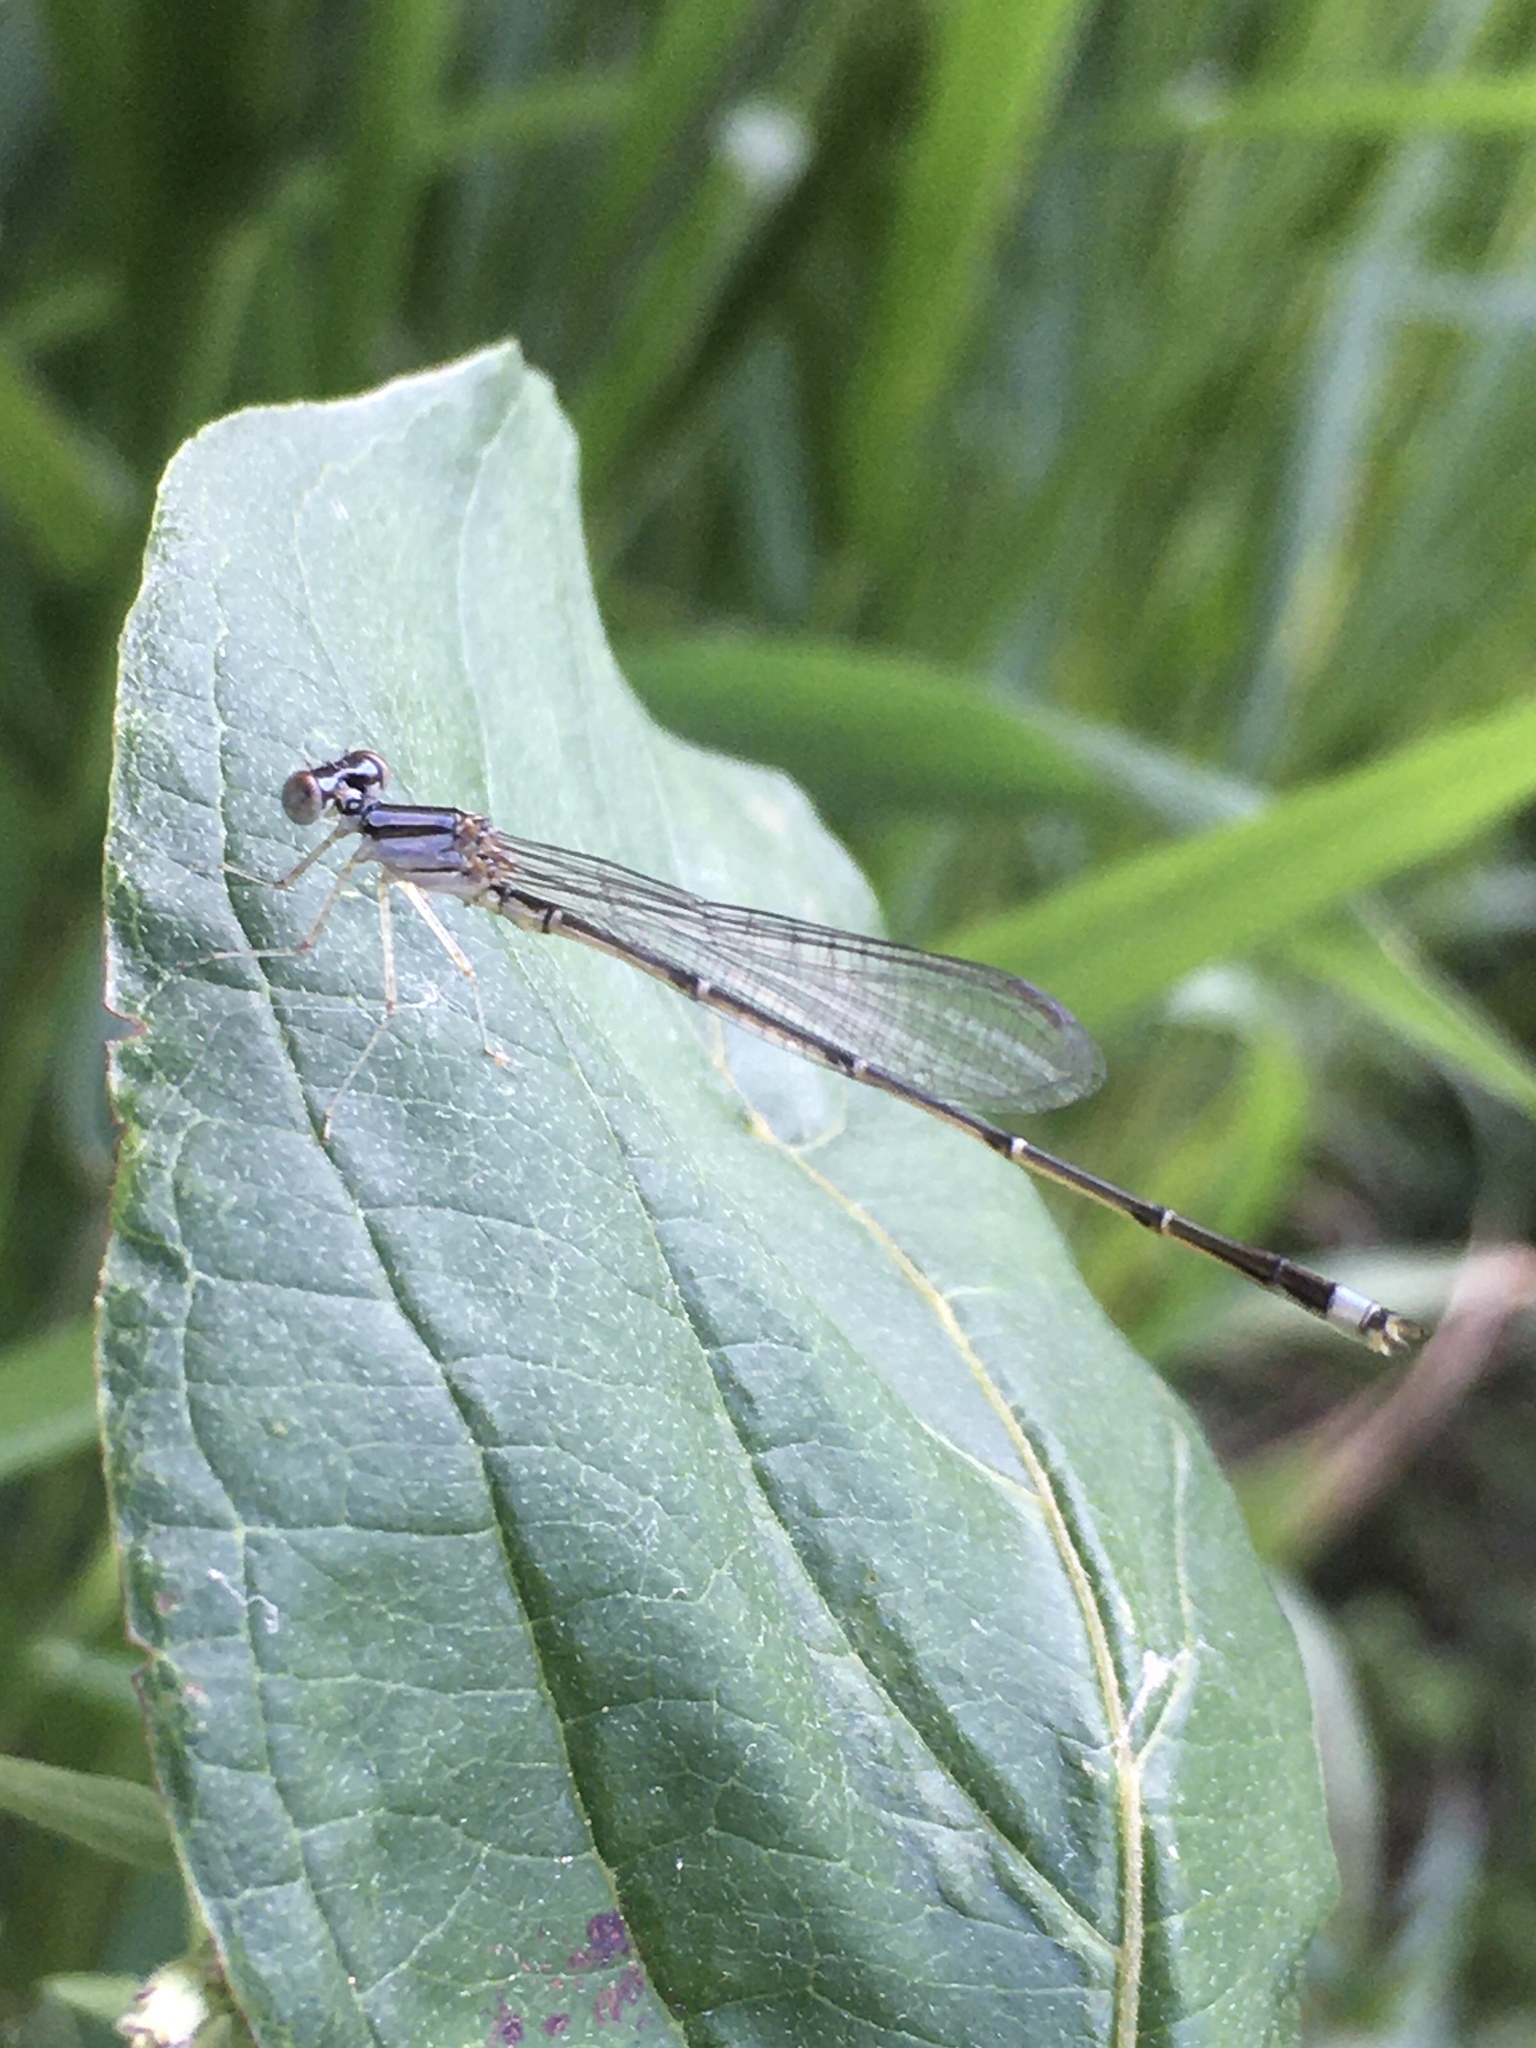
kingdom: Animalia
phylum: Arthropoda
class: Insecta
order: Odonata
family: Coenagrionidae
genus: Enallagma
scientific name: Enallagma signatum
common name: Orange bluet
